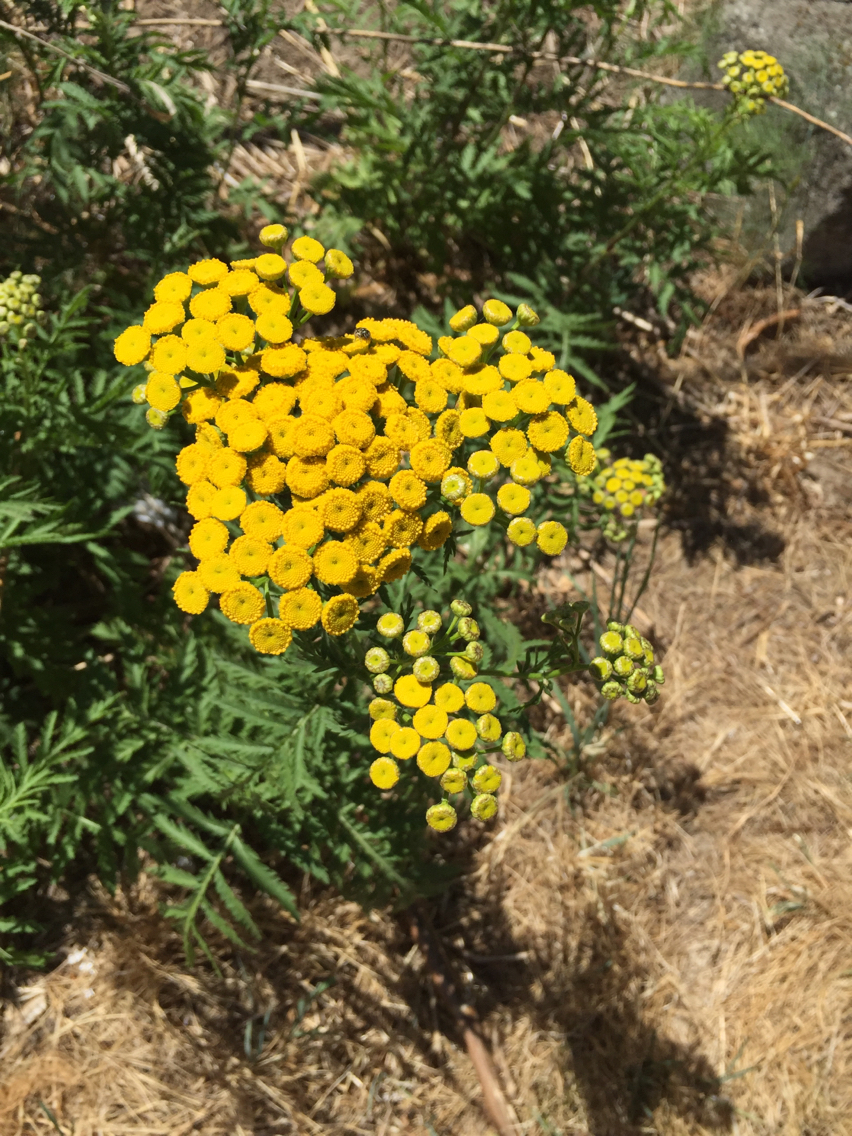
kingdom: Plantae
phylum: Tracheophyta
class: Magnoliopsida
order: Asterales
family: Asteraceae
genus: Tanacetum
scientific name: Tanacetum vulgare
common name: Common tansy
